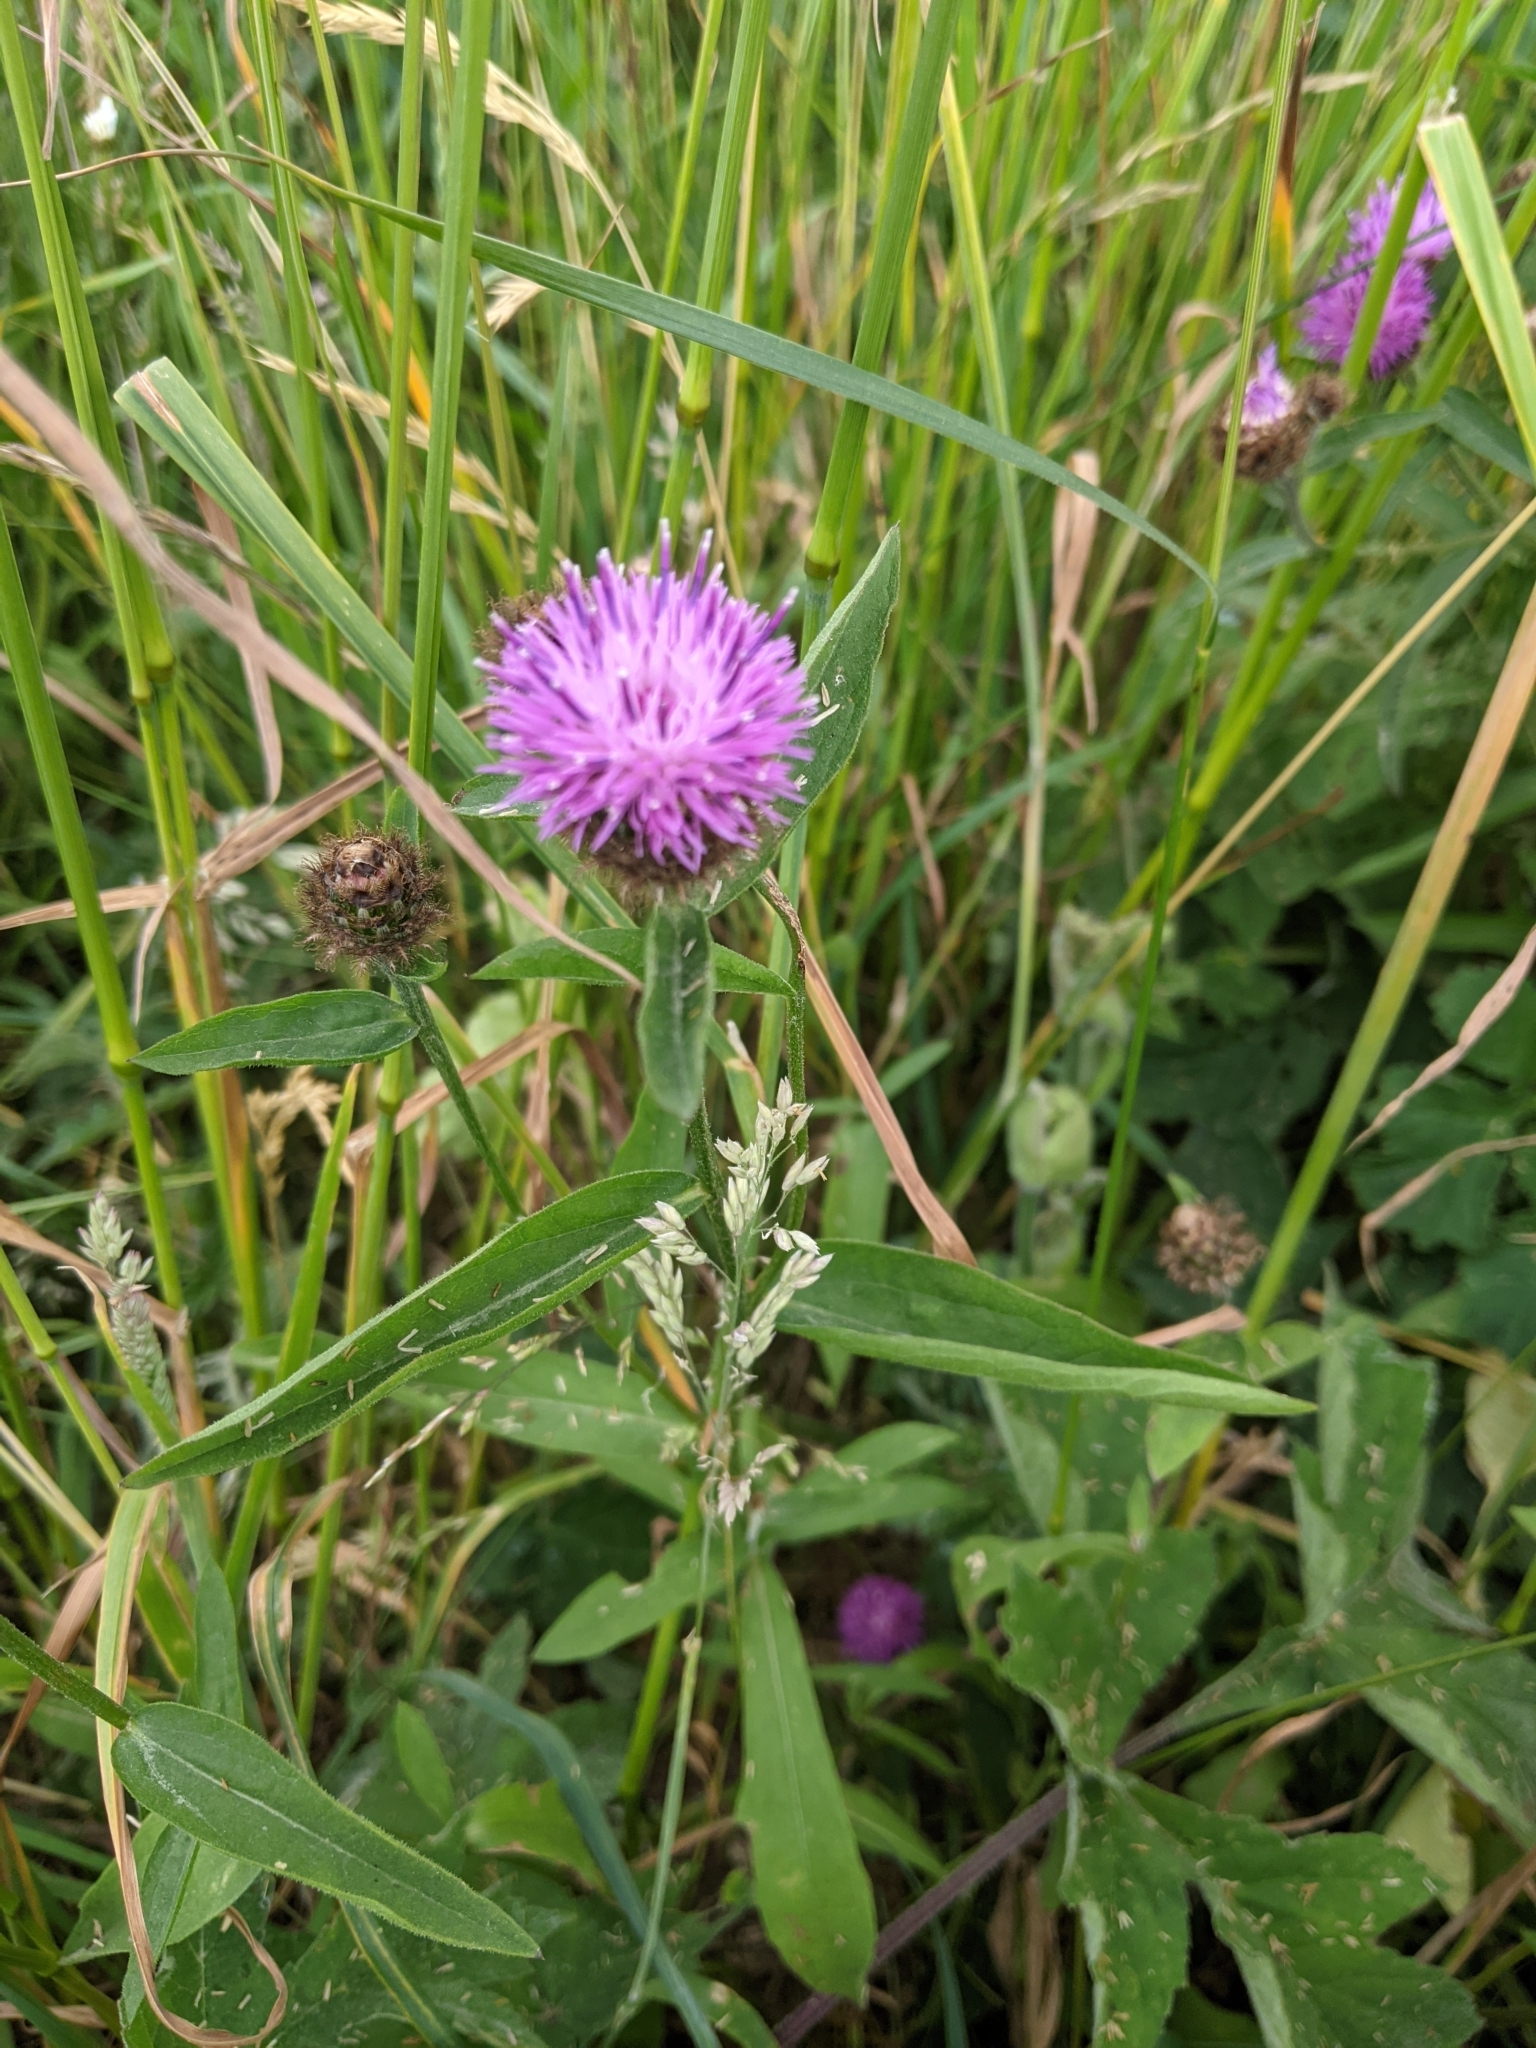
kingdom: Plantae
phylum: Tracheophyta
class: Magnoliopsida
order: Asterales
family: Asteraceae
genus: Centaurea
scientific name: Centaurea nigra
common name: Lesser knapweed
